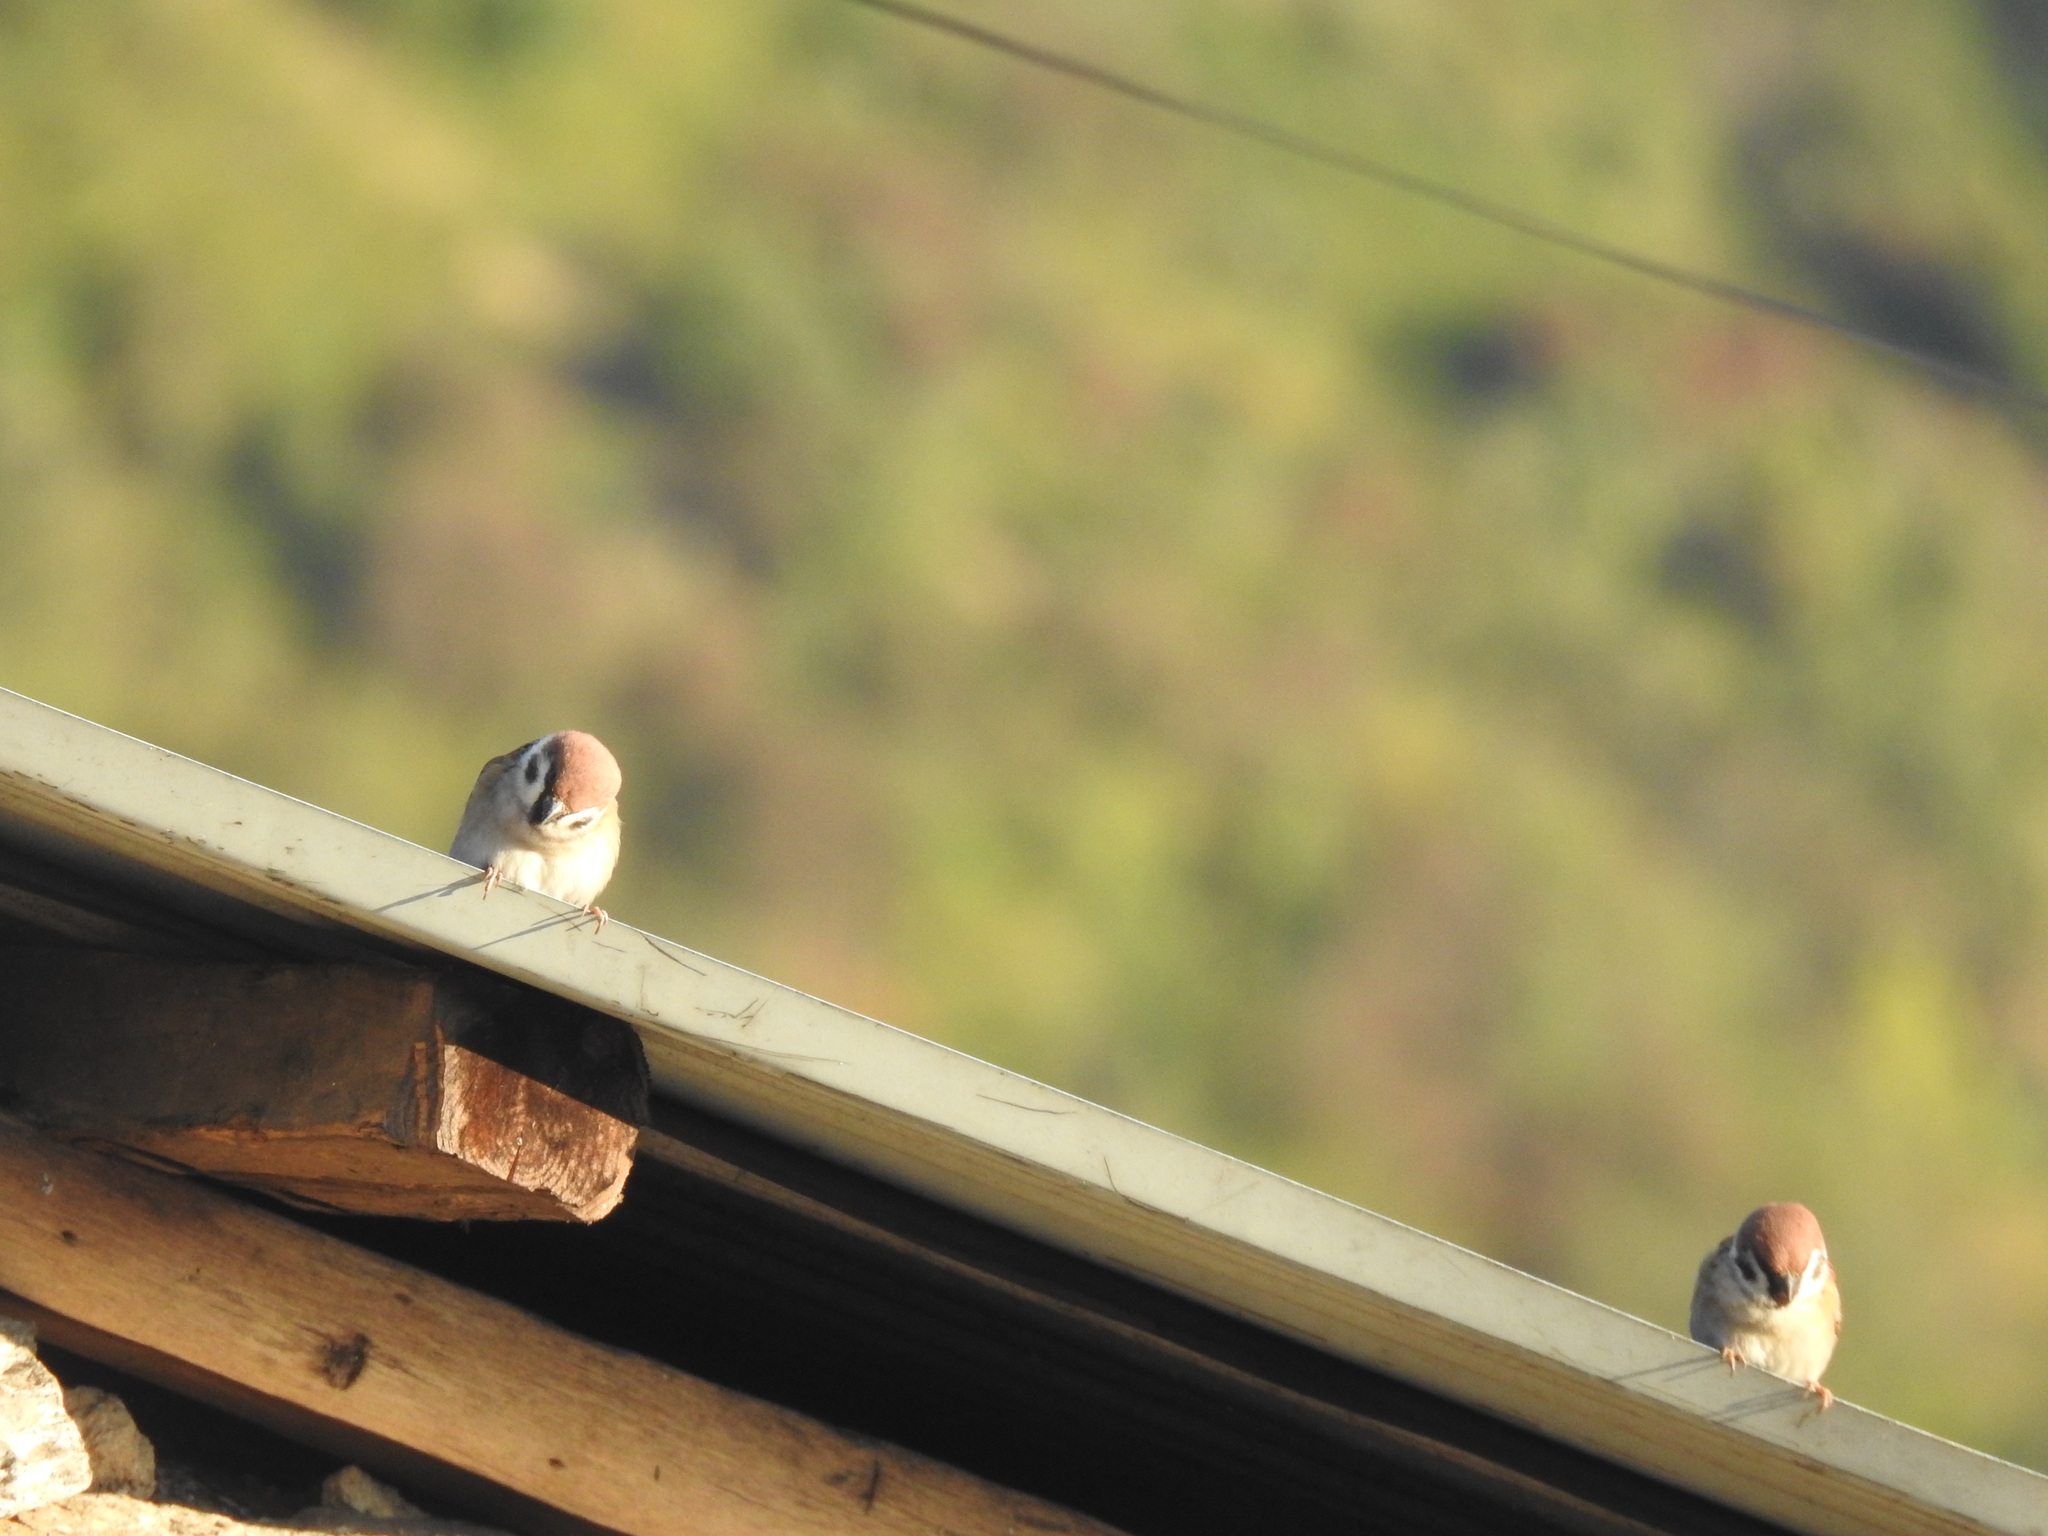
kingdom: Animalia
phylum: Chordata
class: Aves
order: Passeriformes
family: Passeridae
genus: Passer
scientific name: Passer montanus
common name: Eurasian tree sparrow
